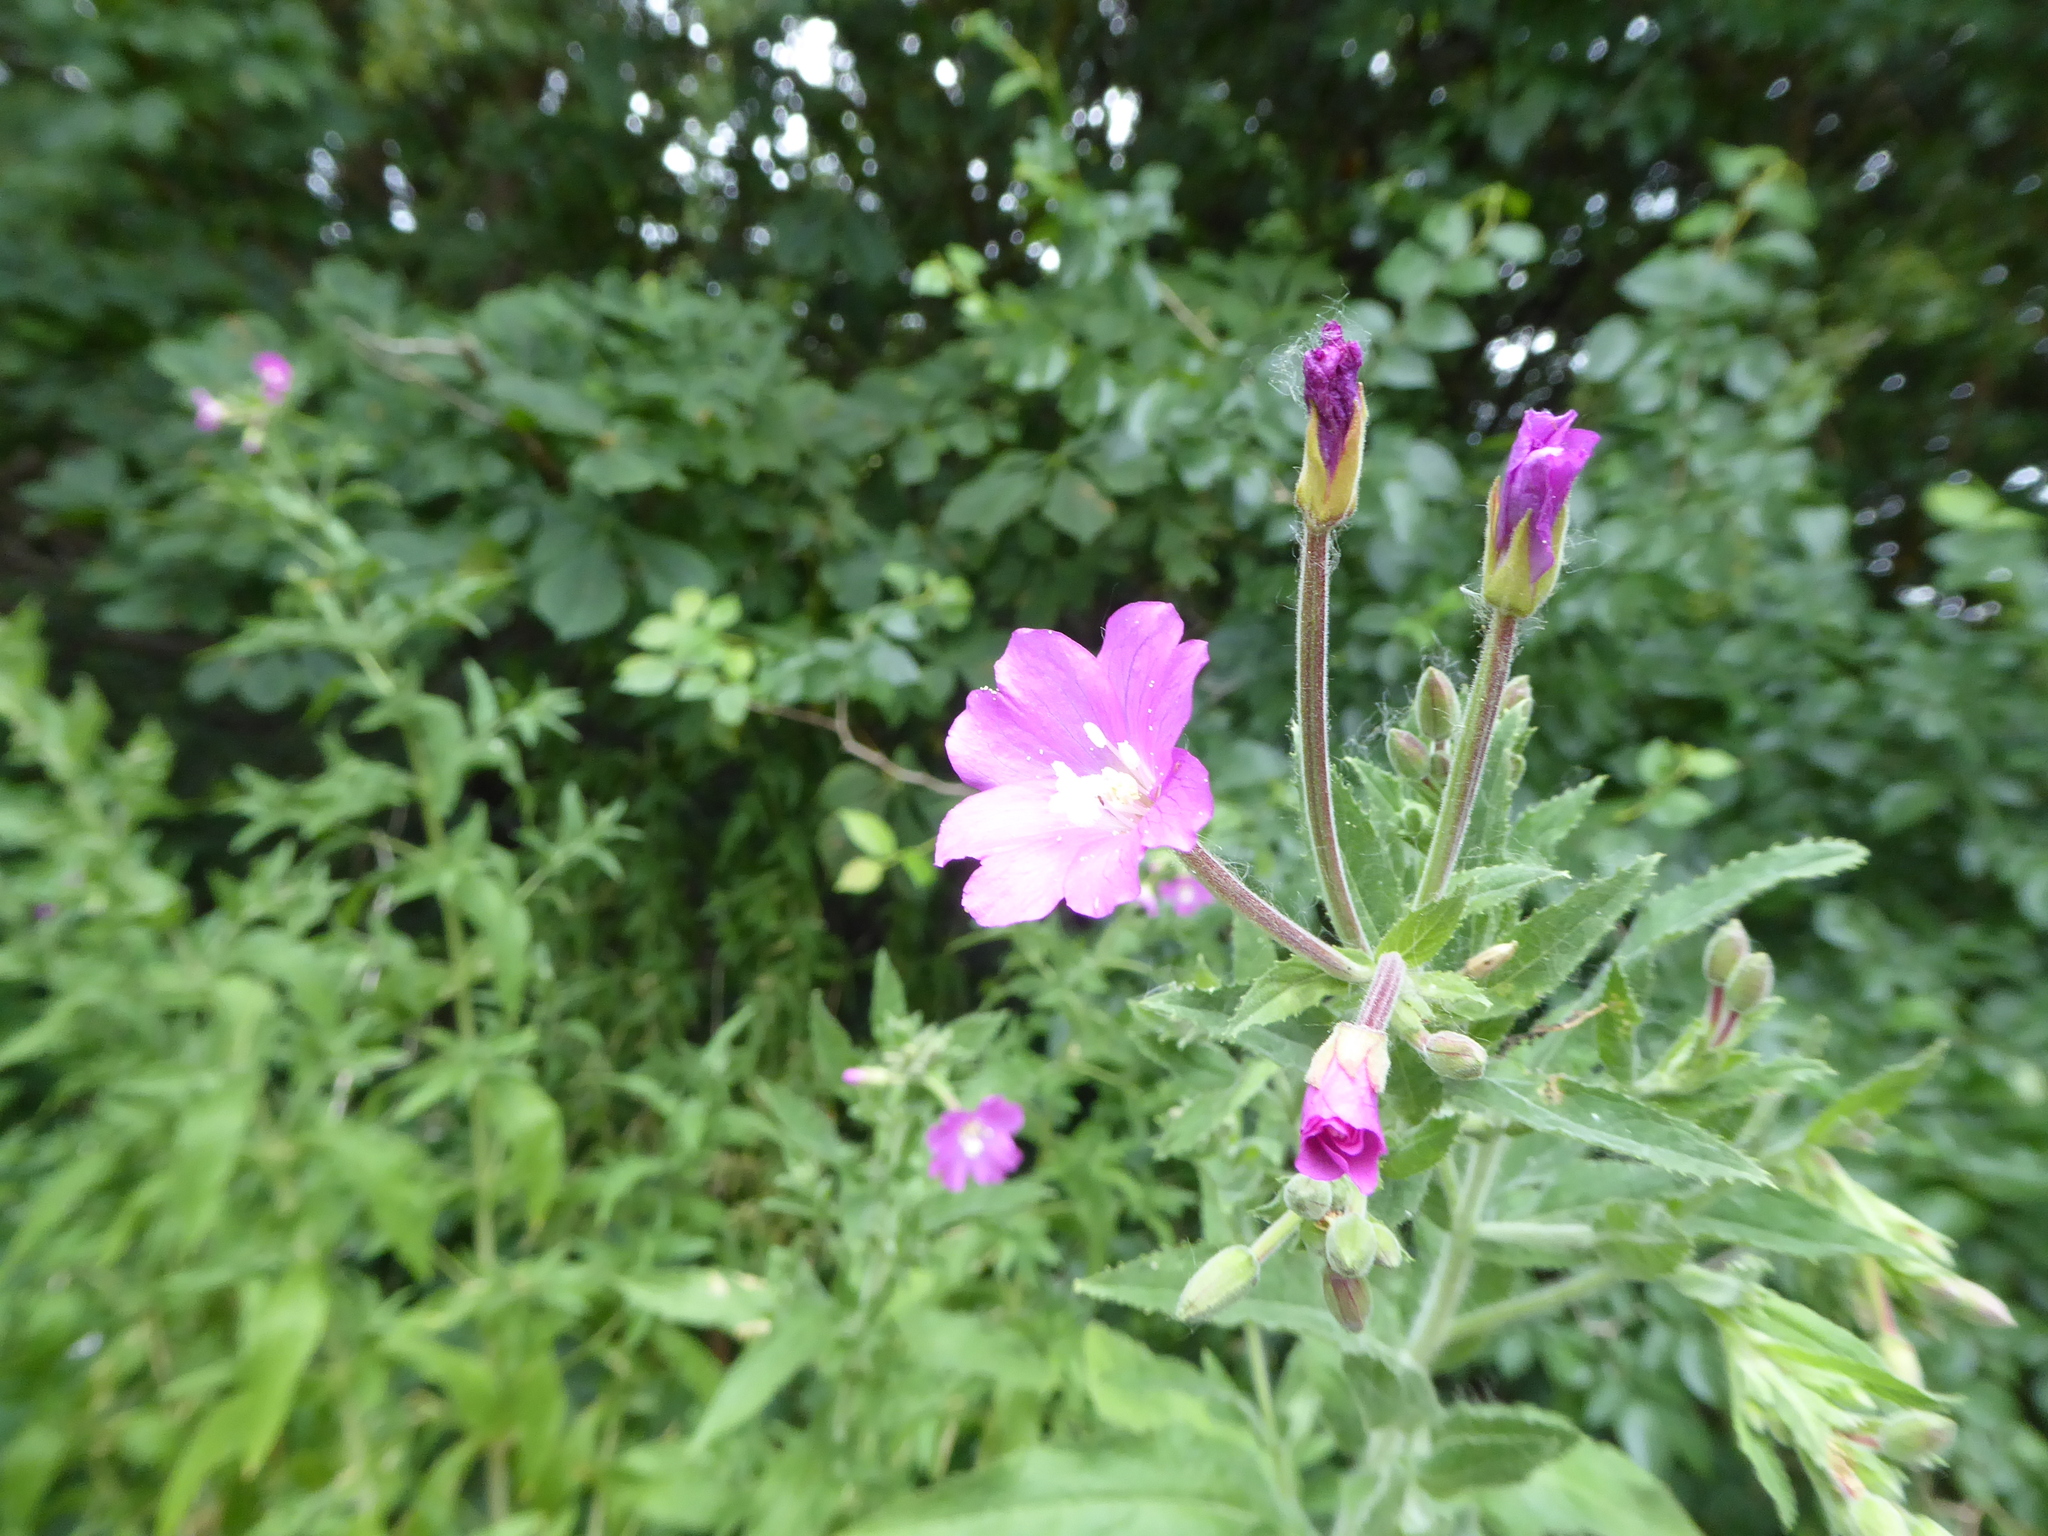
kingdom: Plantae
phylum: Tracheophyta
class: Magnoliopsida
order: Myrtales
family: Onagraceae
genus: Epilobium
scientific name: Epilobium hirsutum
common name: Great willowherb
